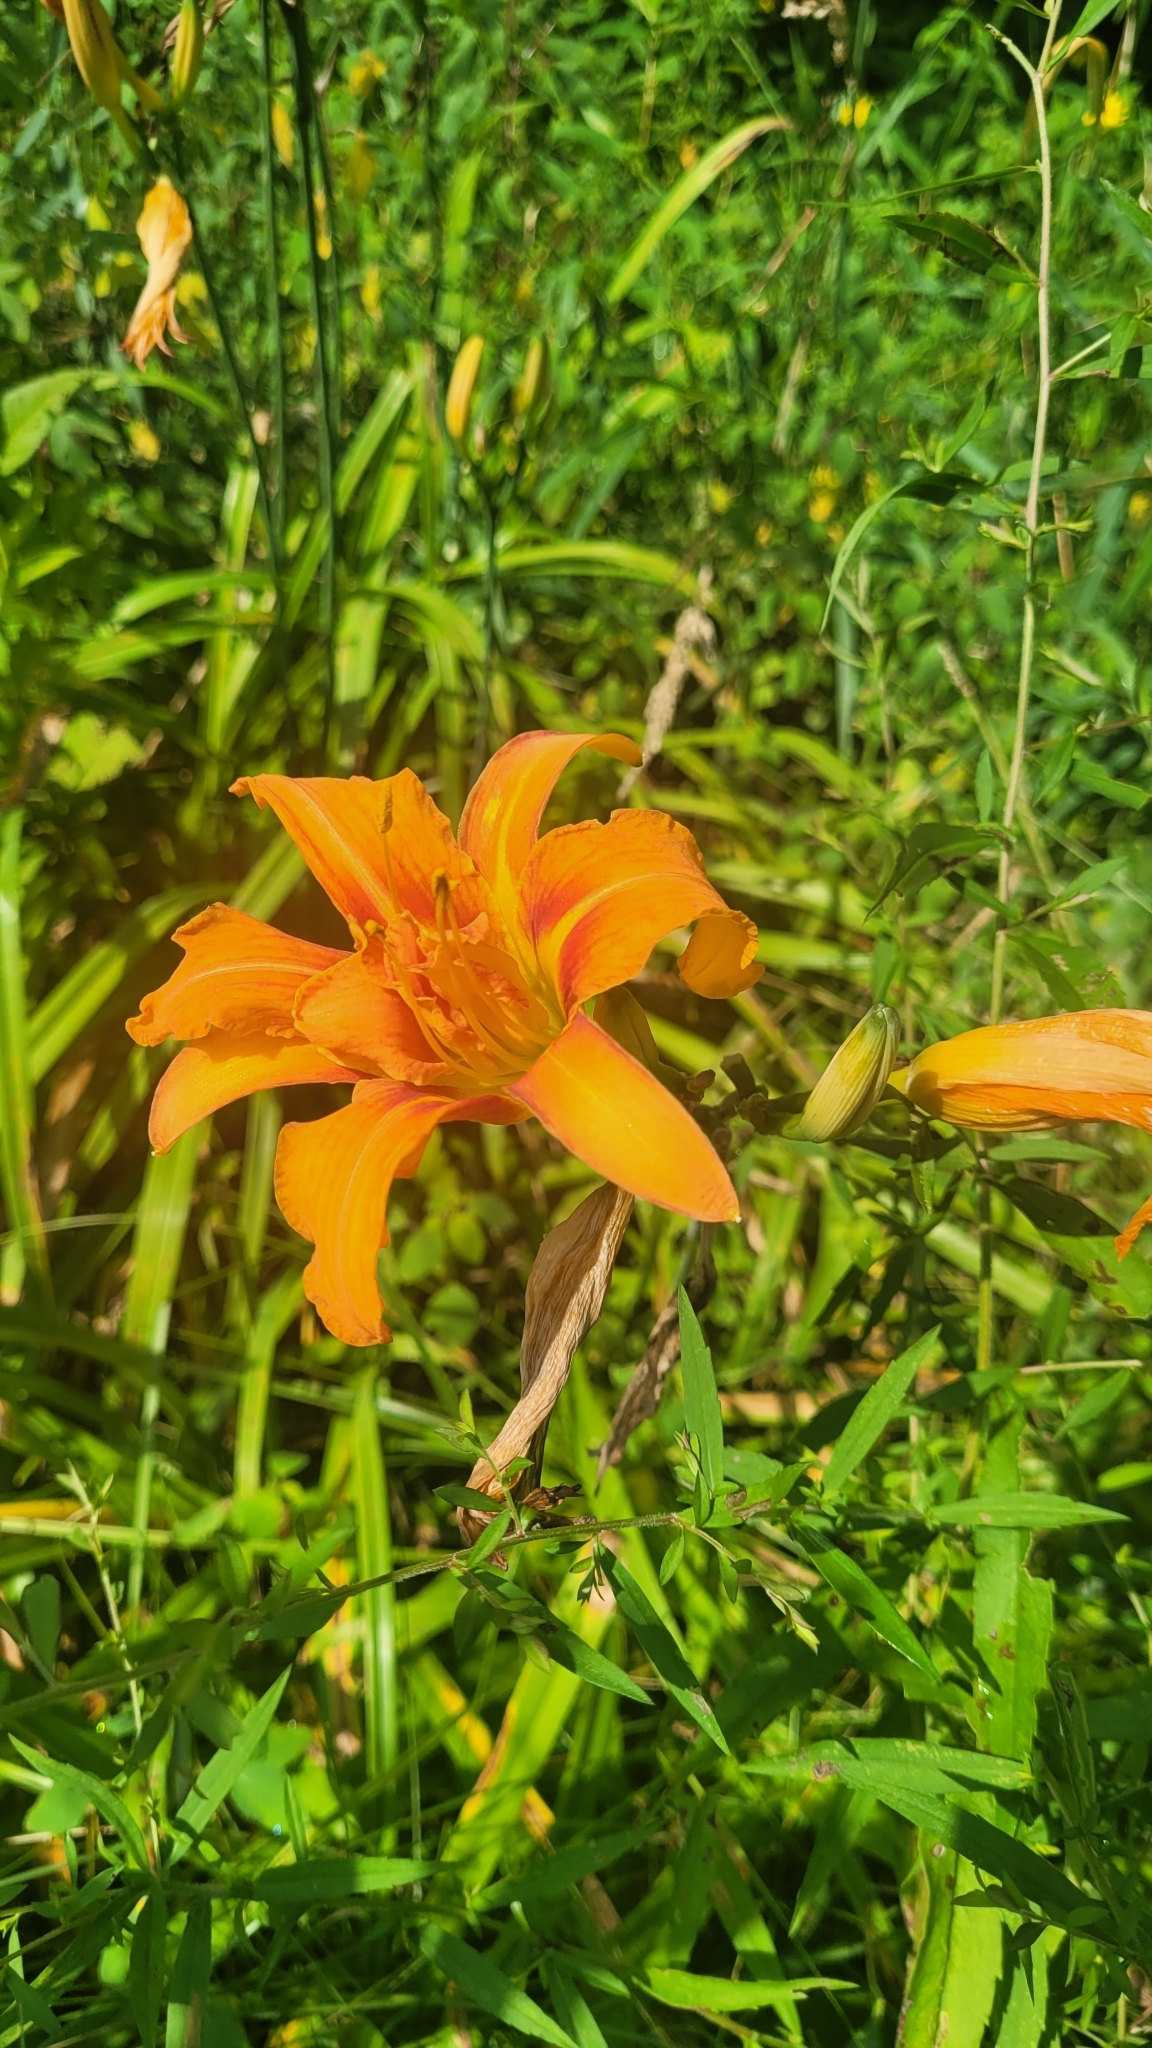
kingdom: Plantae
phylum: Tracheophyta
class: Liliopsida
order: Asparagales
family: Asphodelaceae
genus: Hemerocallis
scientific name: Hemerocallis fulva
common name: Orange day-lily
